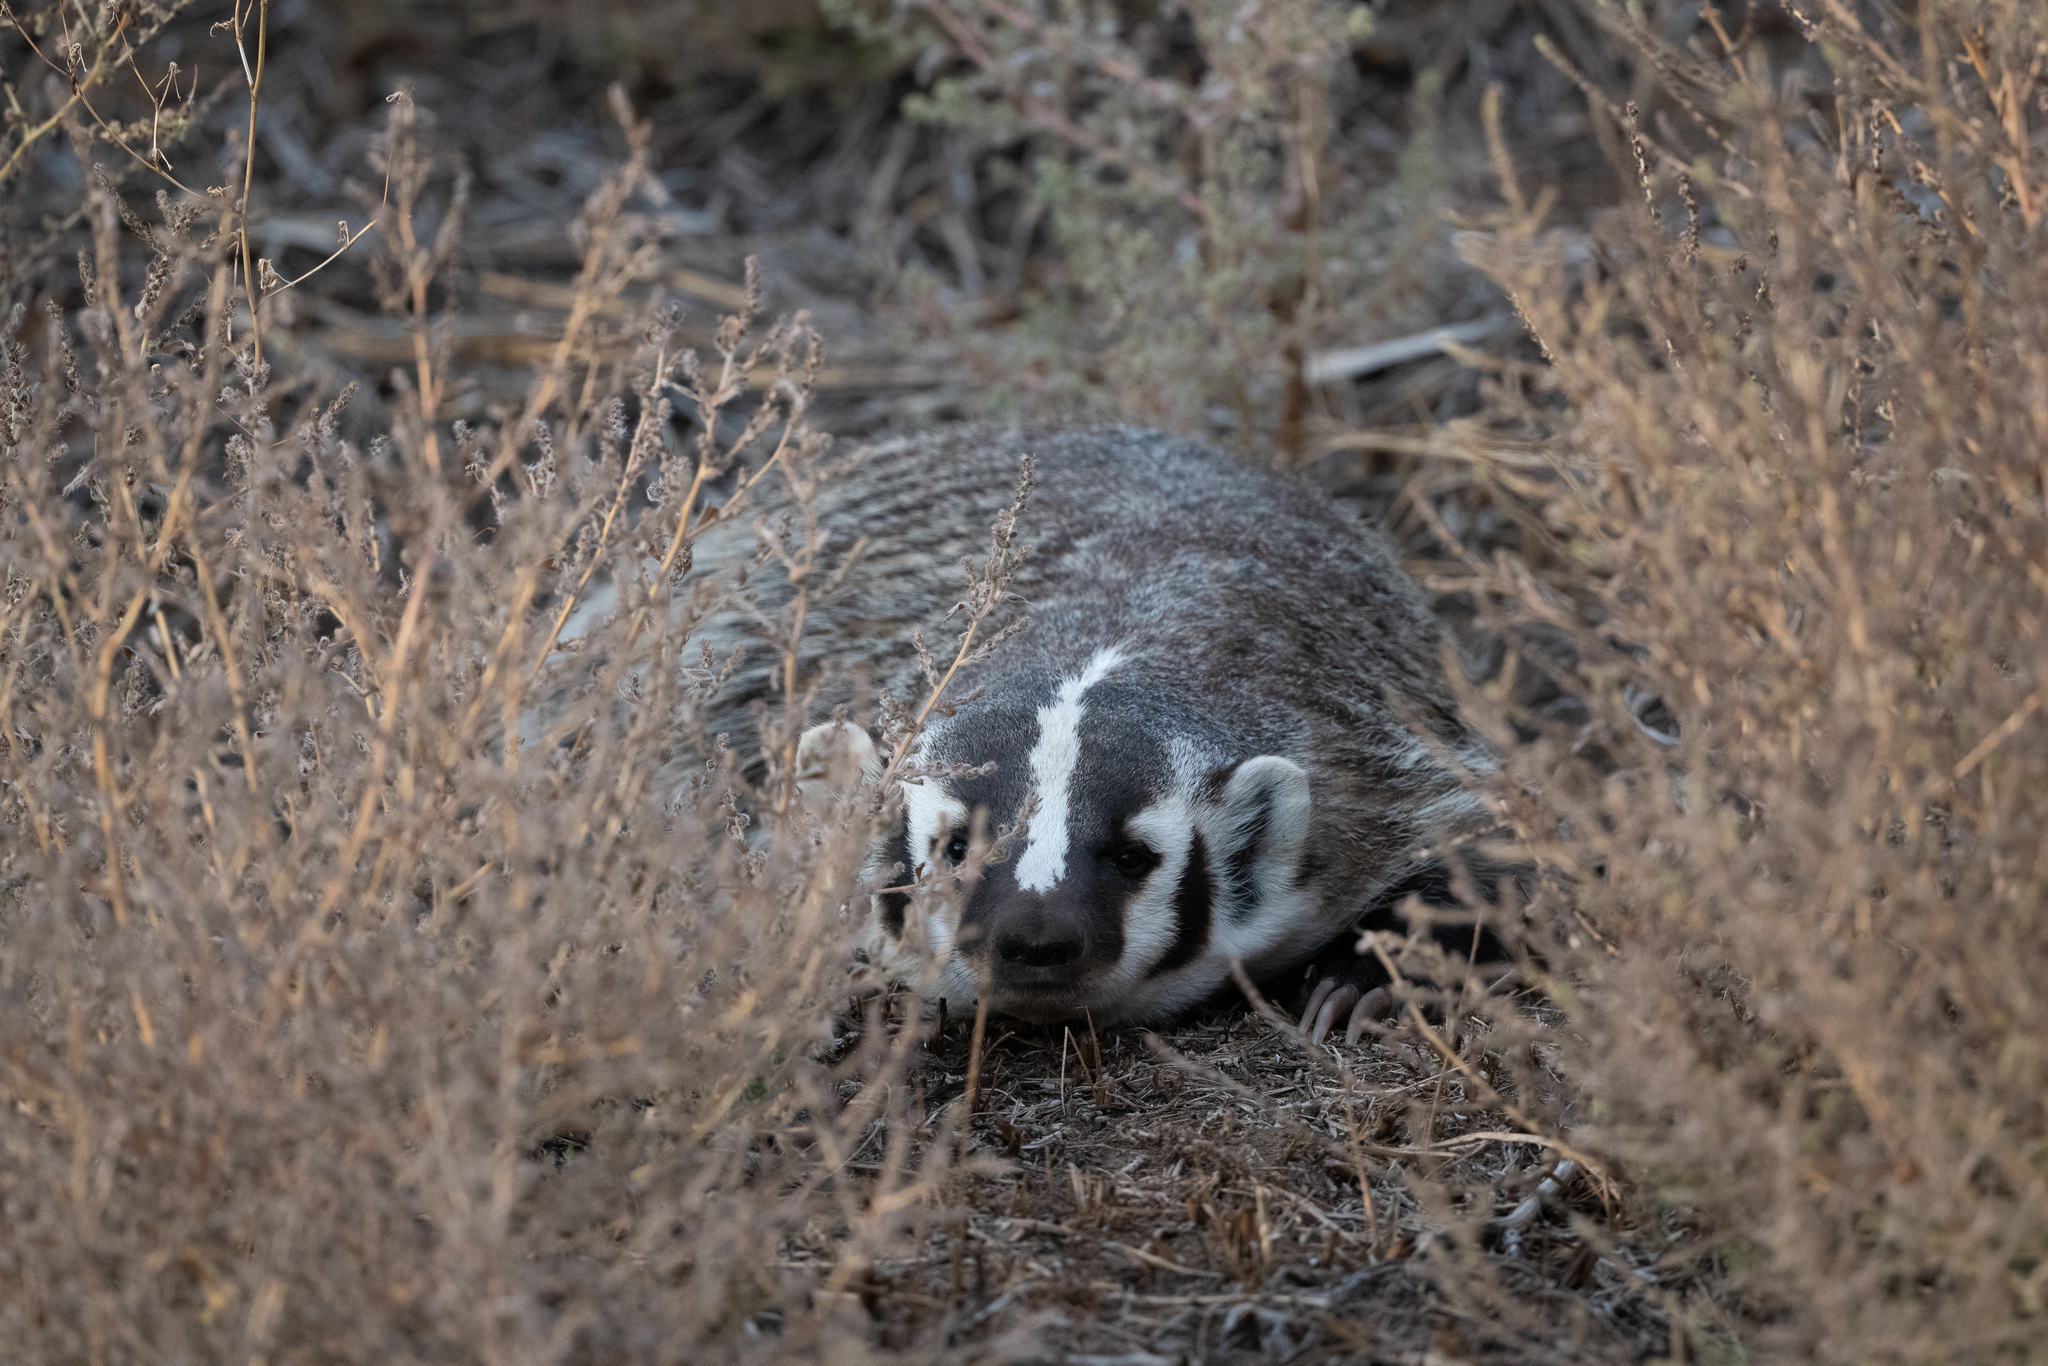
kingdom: Animalia
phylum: Chordata
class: Mammalia
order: Carnivora
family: Mustelidae
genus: Taxidea
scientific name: Taxidea taxus
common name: American badger
